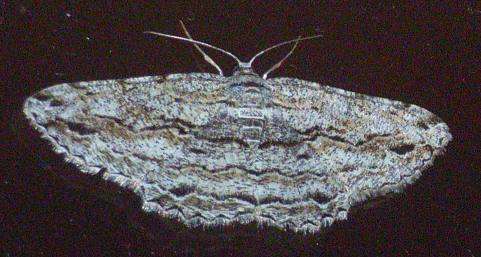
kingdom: Animalia
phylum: Arthropoda
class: Insecta
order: Lepidoptera
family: Geometridae
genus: Scioglyptis
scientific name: Scioglyptis chionomera
